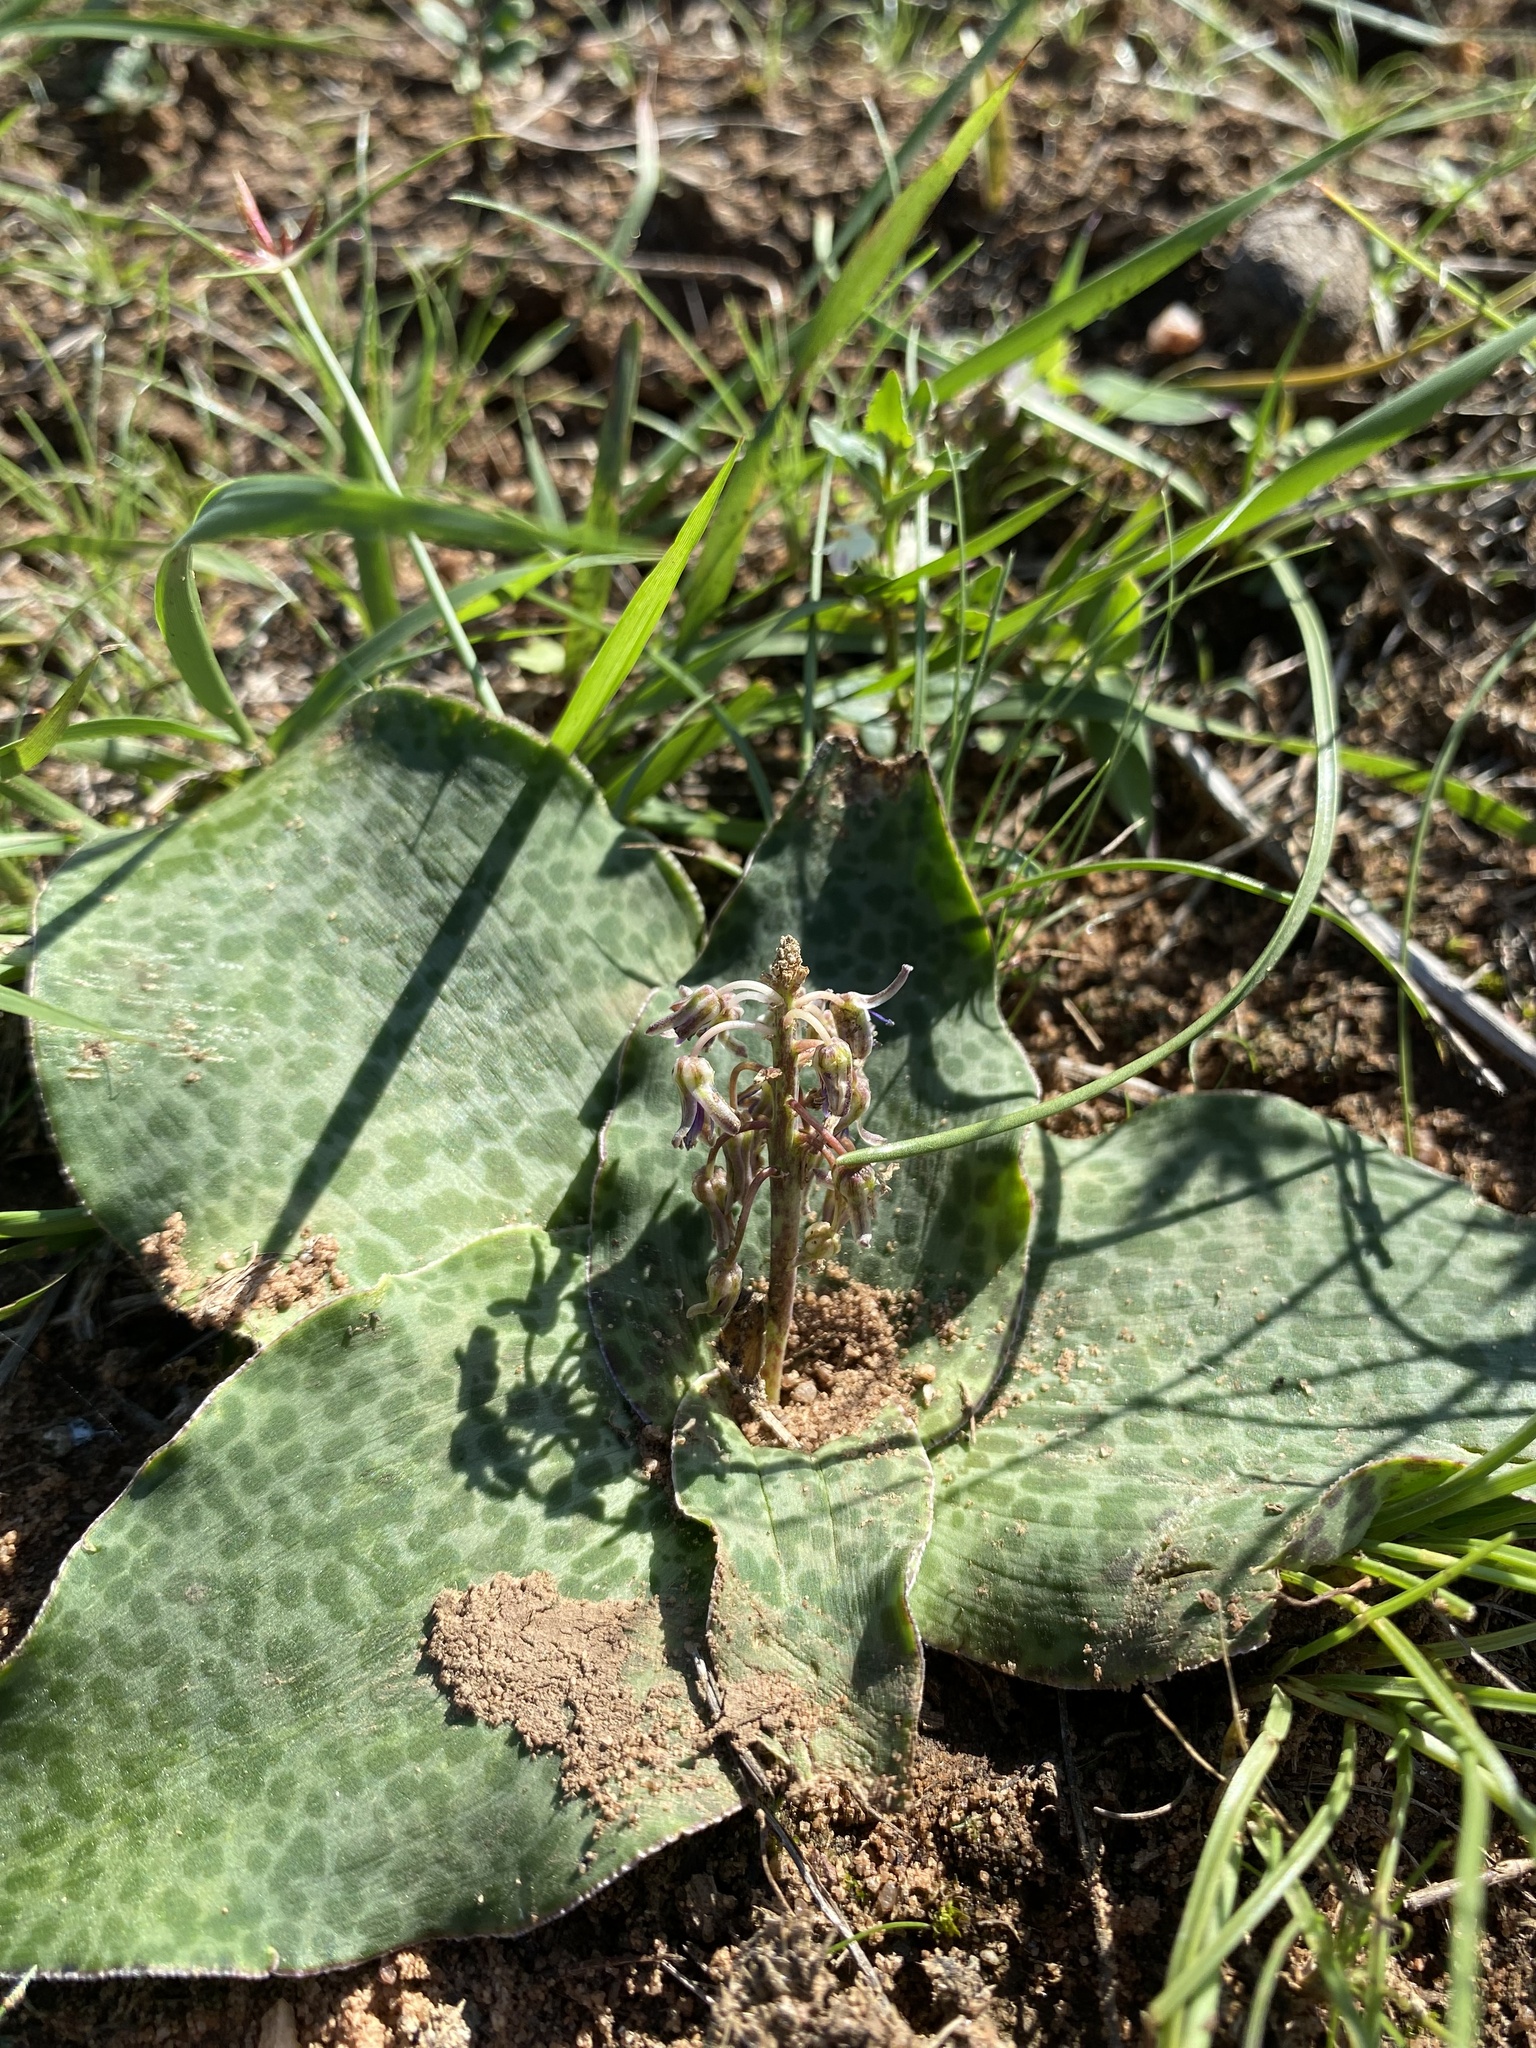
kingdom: Plantae
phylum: Tracheophyta
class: Liliopsida
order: Asparagales
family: Asparagaceae
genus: Ledebouria
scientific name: Ledebouria ovatifolia
